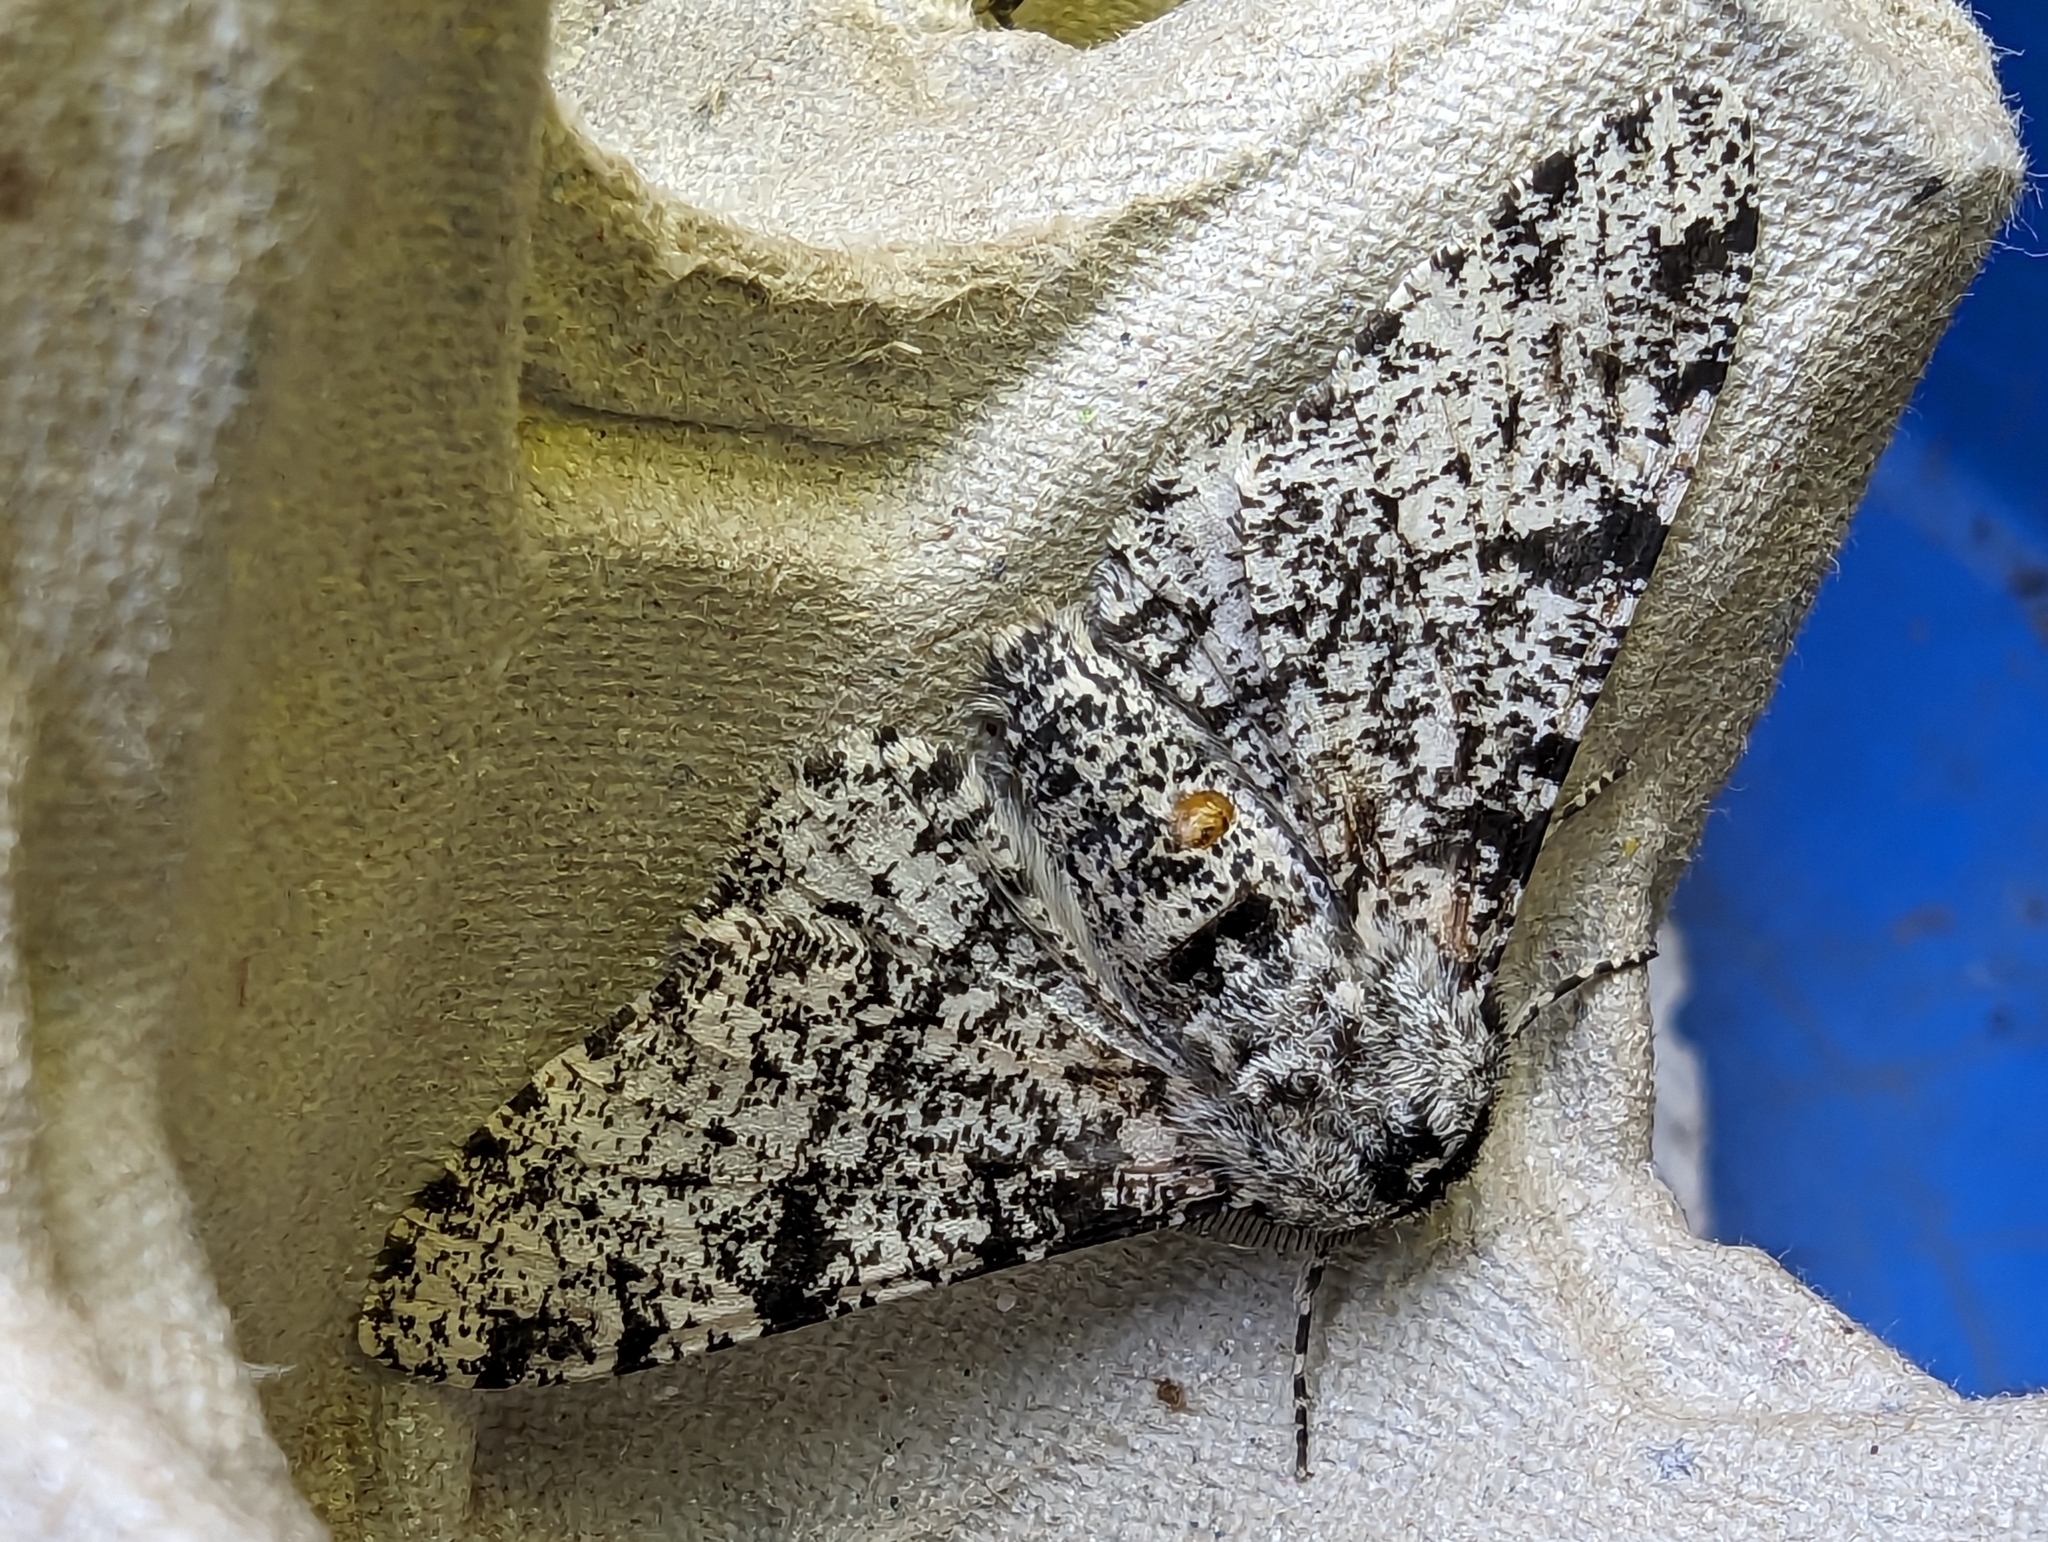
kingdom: Animalia
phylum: Arthropoda
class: Insecta
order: Lepidoptera
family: Geometridae
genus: Biston
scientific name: Biston betularia
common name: Peppered moth
